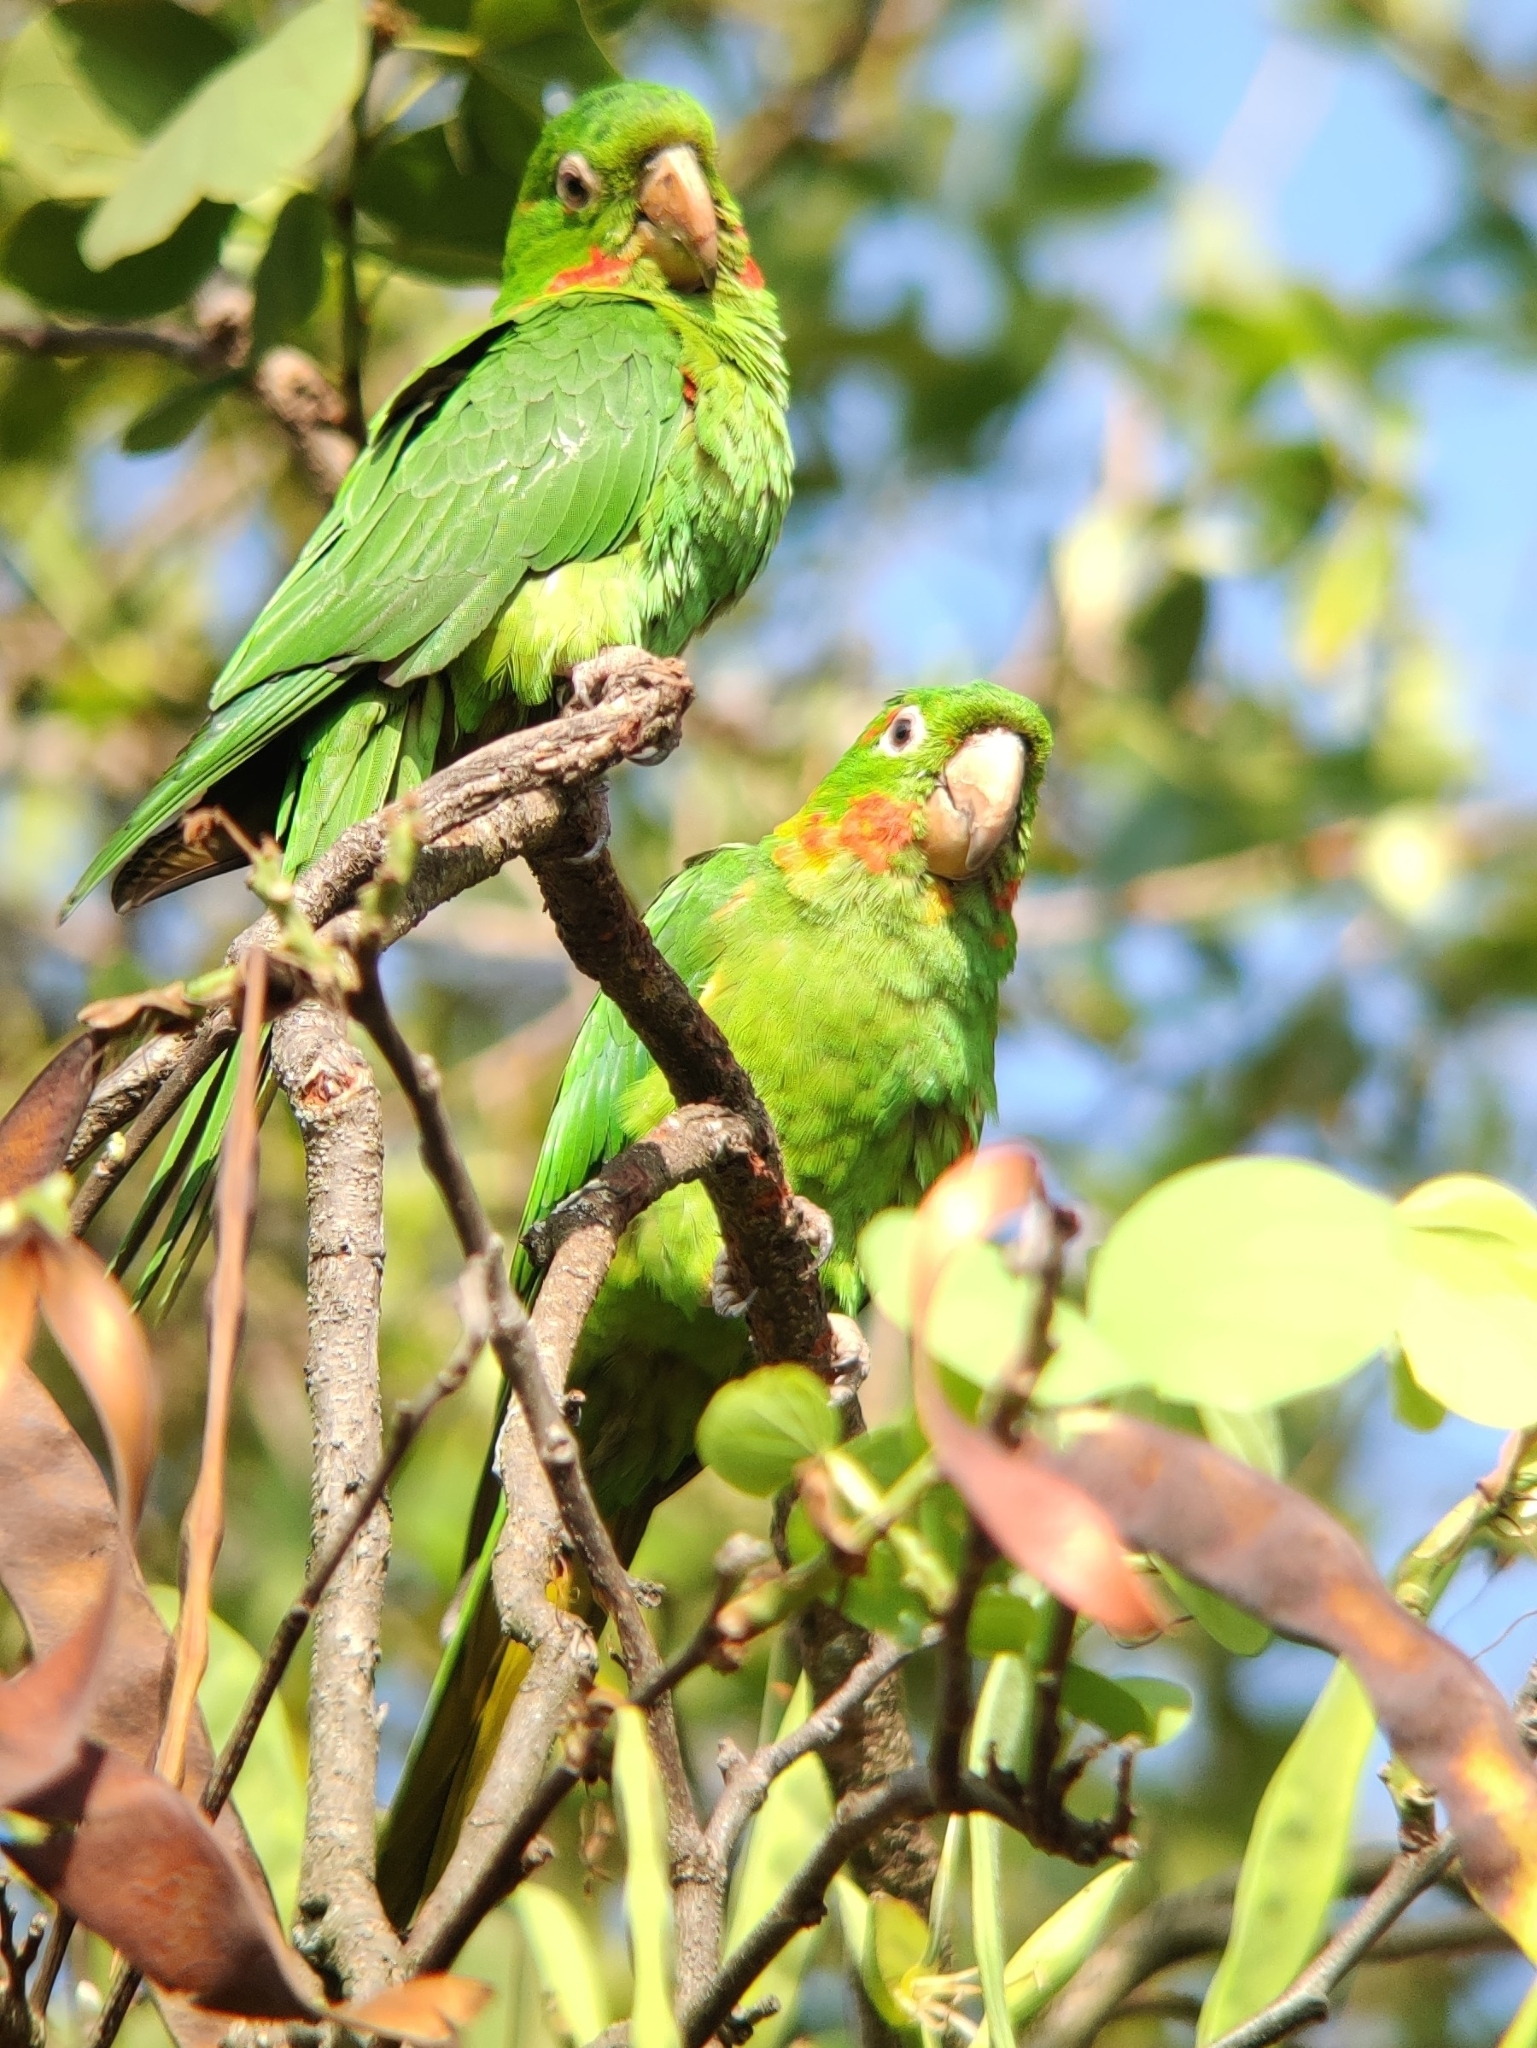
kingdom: Animalia
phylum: Chordata
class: Aves
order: Psittaciformes
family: Psittacidae
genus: Aratinga
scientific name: Aratinga leucophthalma
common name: White-eyed parakeet
